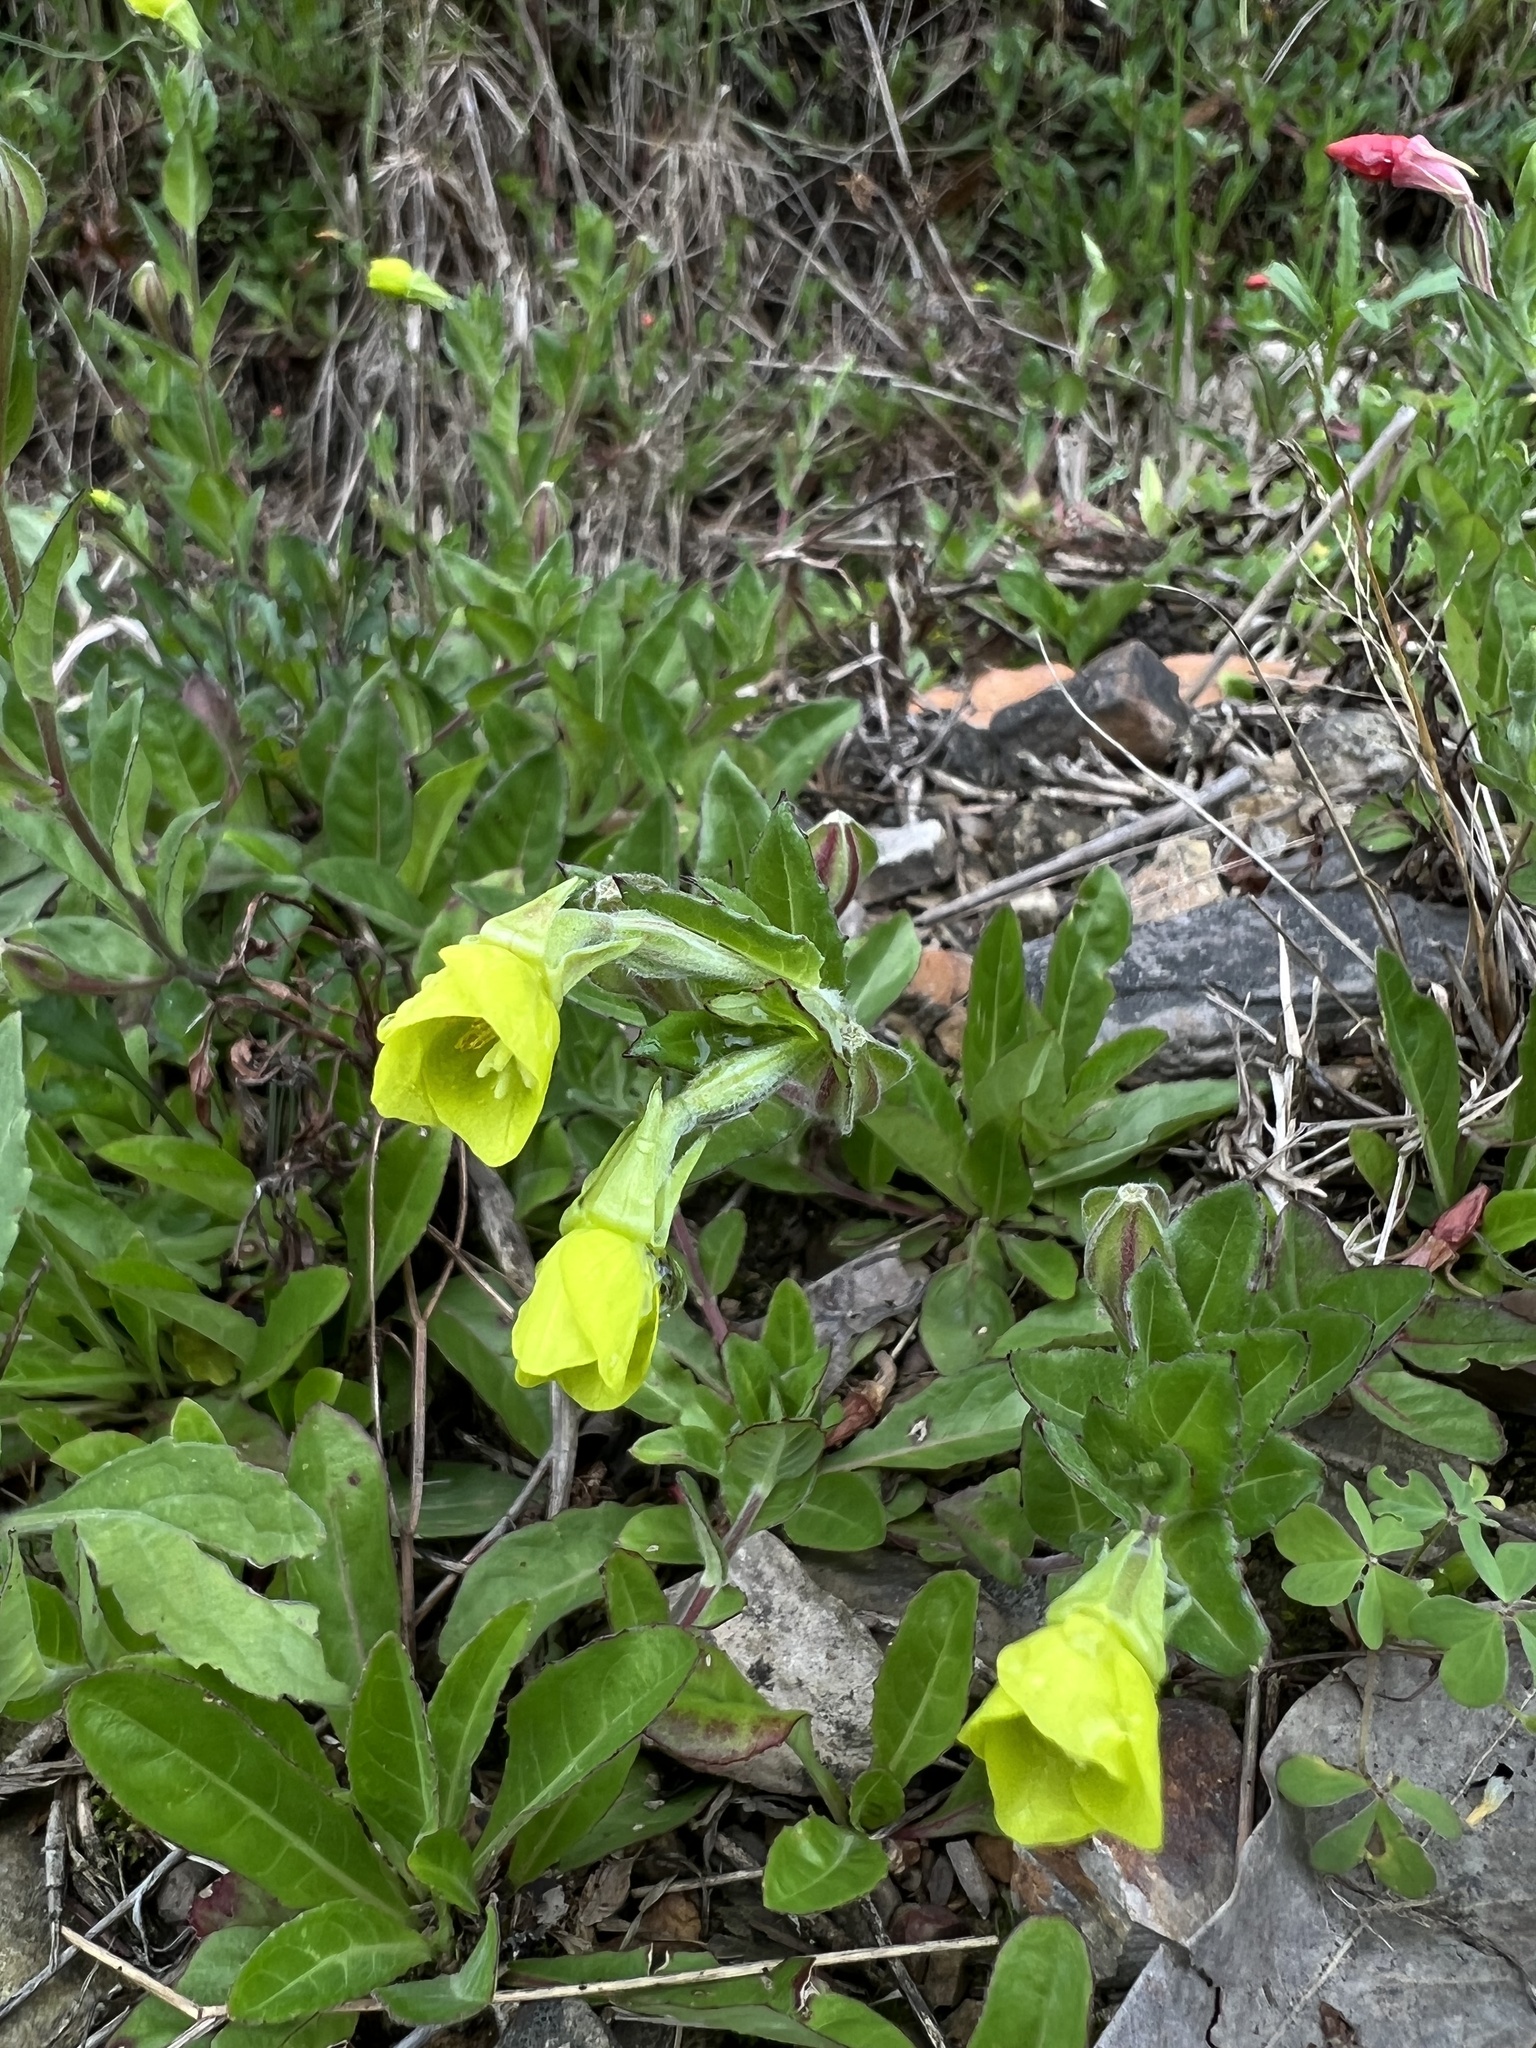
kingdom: Plantae
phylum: Tracheophyta
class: Magnoliopsida
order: Myrtales
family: Onagraceae
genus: Oenothera
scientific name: Oenothera multicaulis
